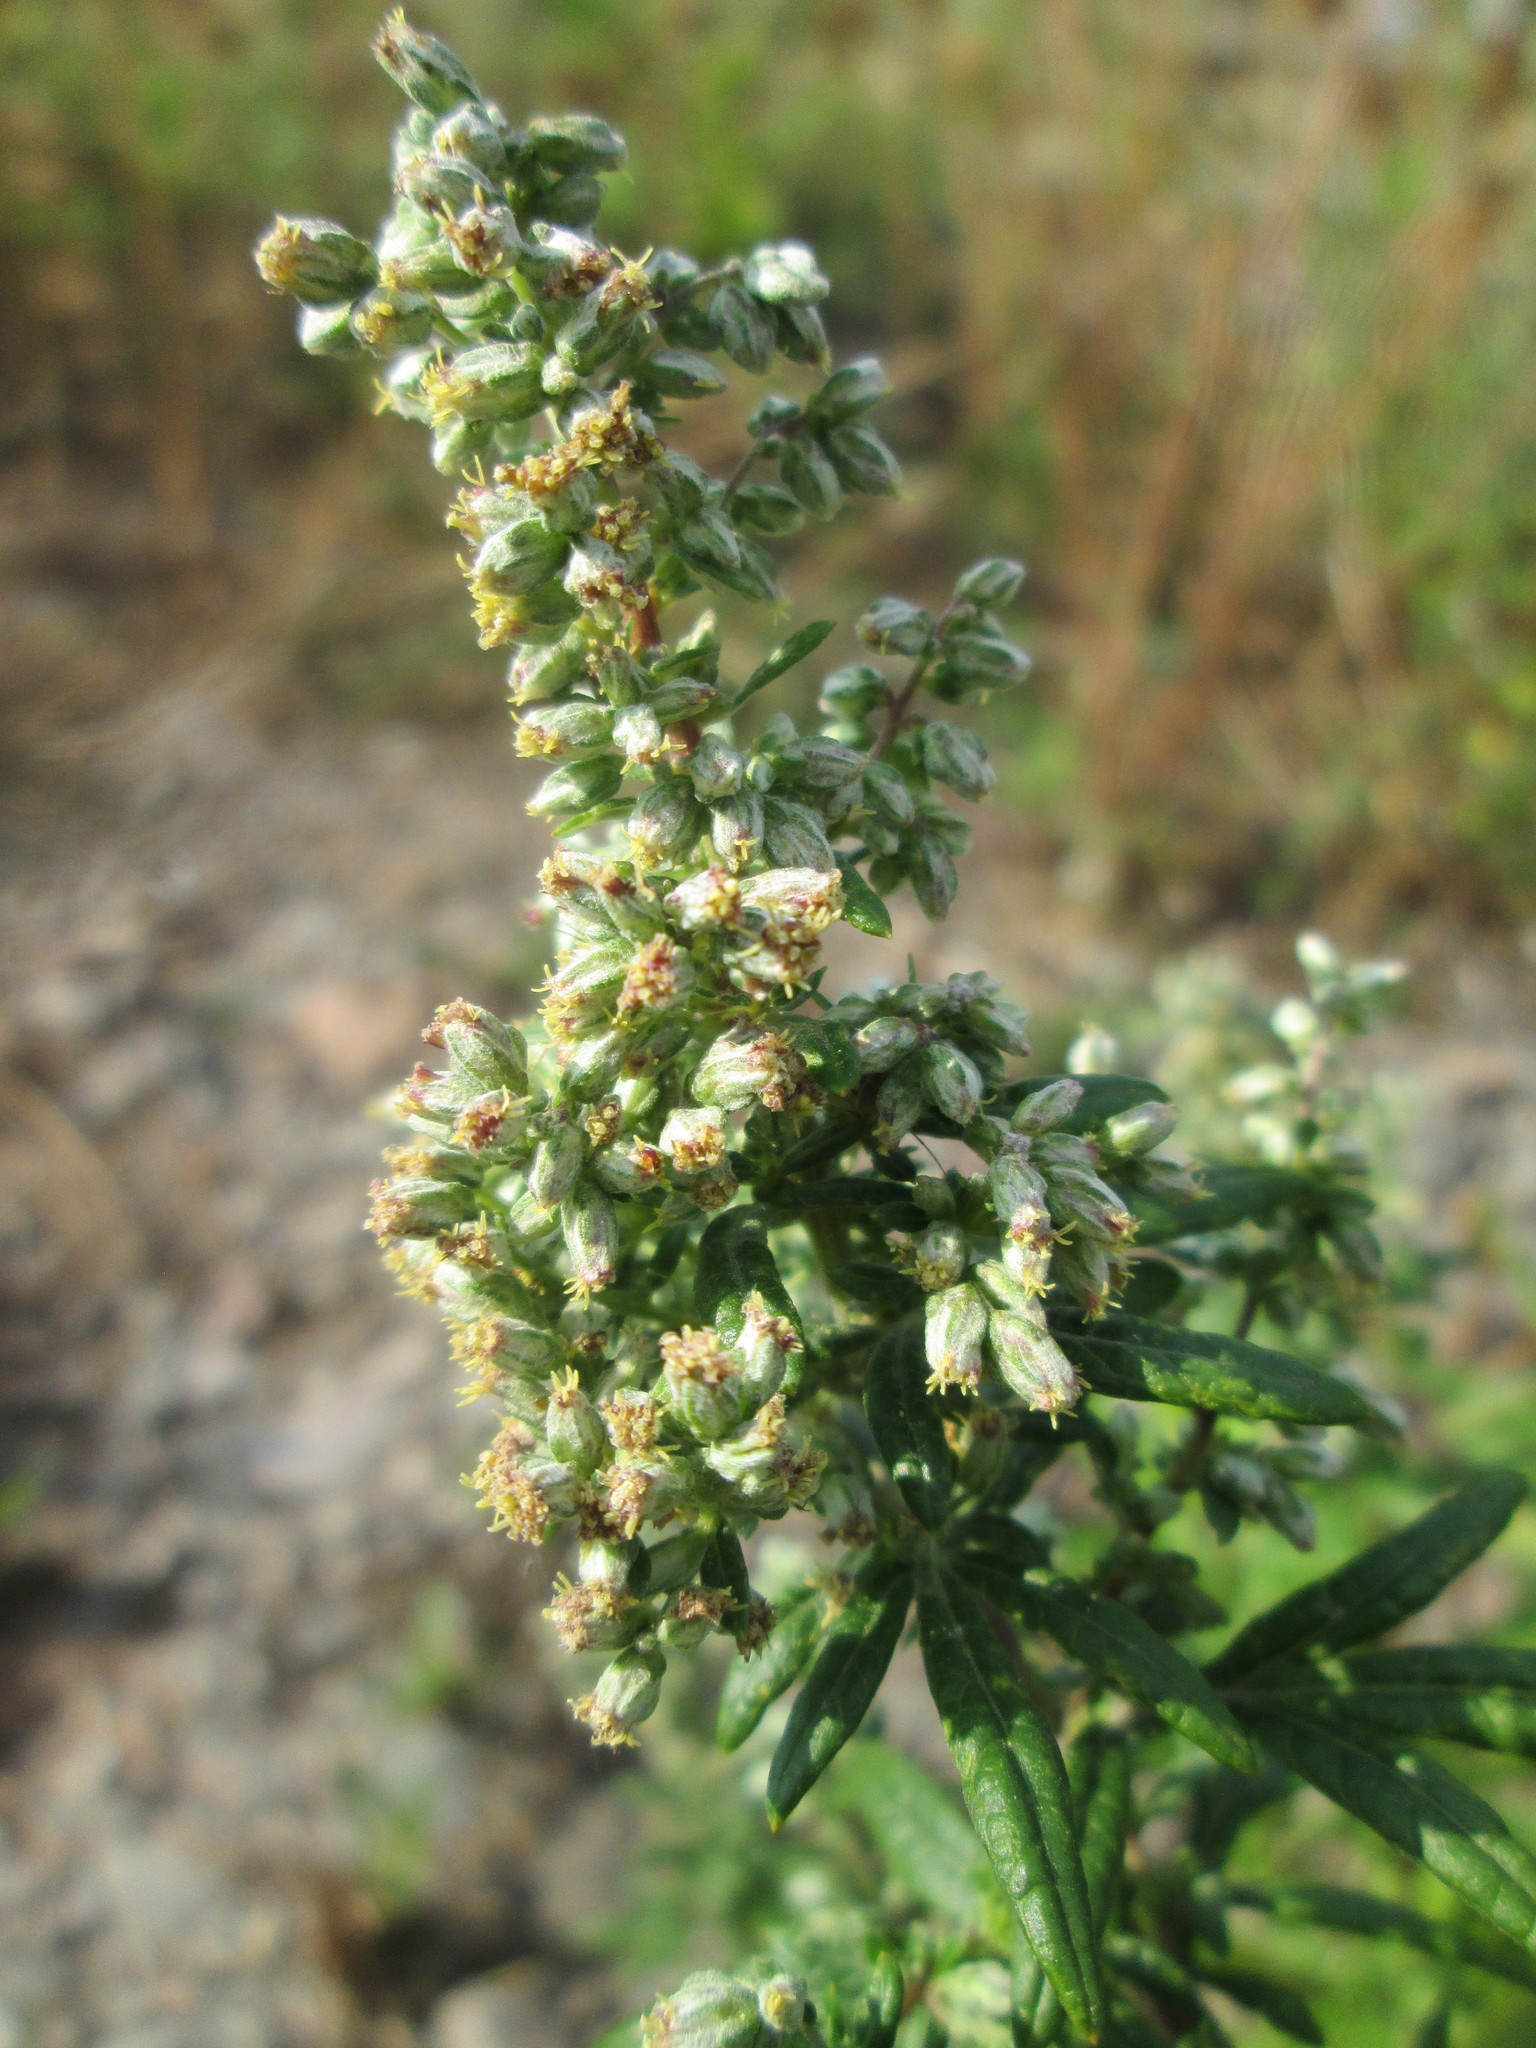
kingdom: Plantae
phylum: Tracheophyta
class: Magnoliopsida
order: Asterales
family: Asteraceae
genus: Artemisia
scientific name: Artemisia vulgaris
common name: Mugwort
